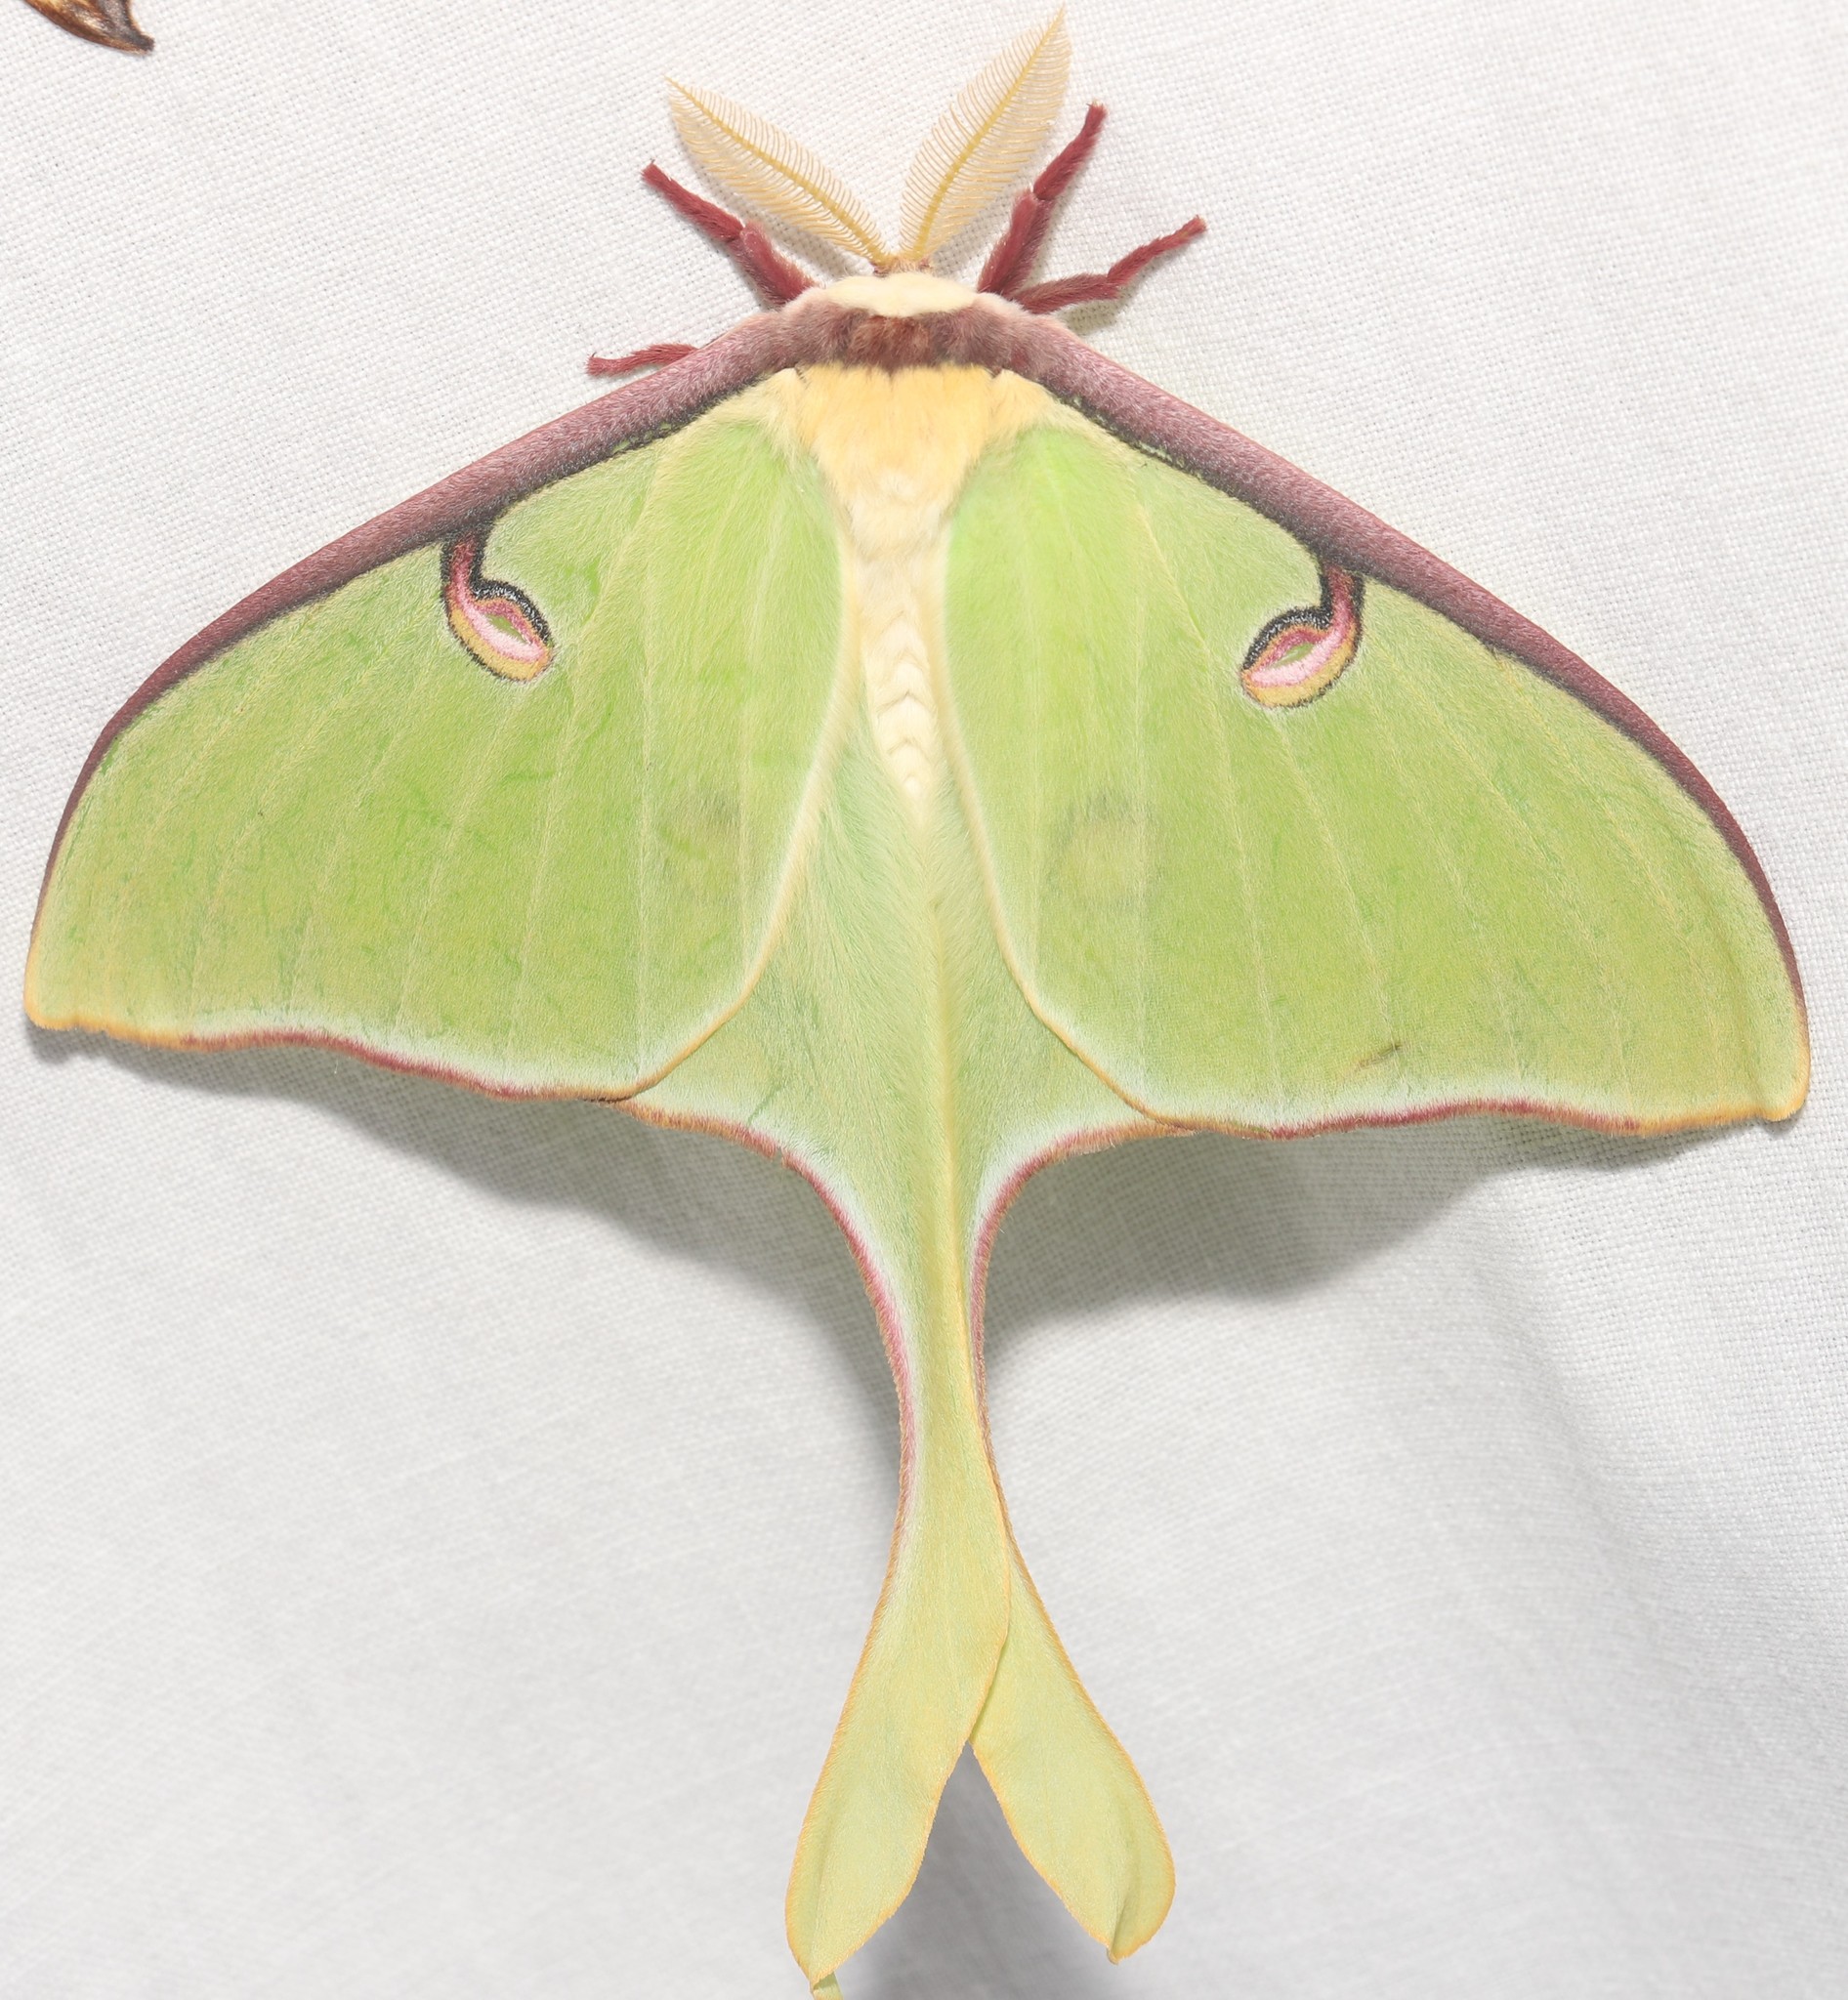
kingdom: Animalia
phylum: Arthropoda
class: Insecta
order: Lepidoptera
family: Saturniidae
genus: Actias
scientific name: Actias luna
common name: Luna moth
